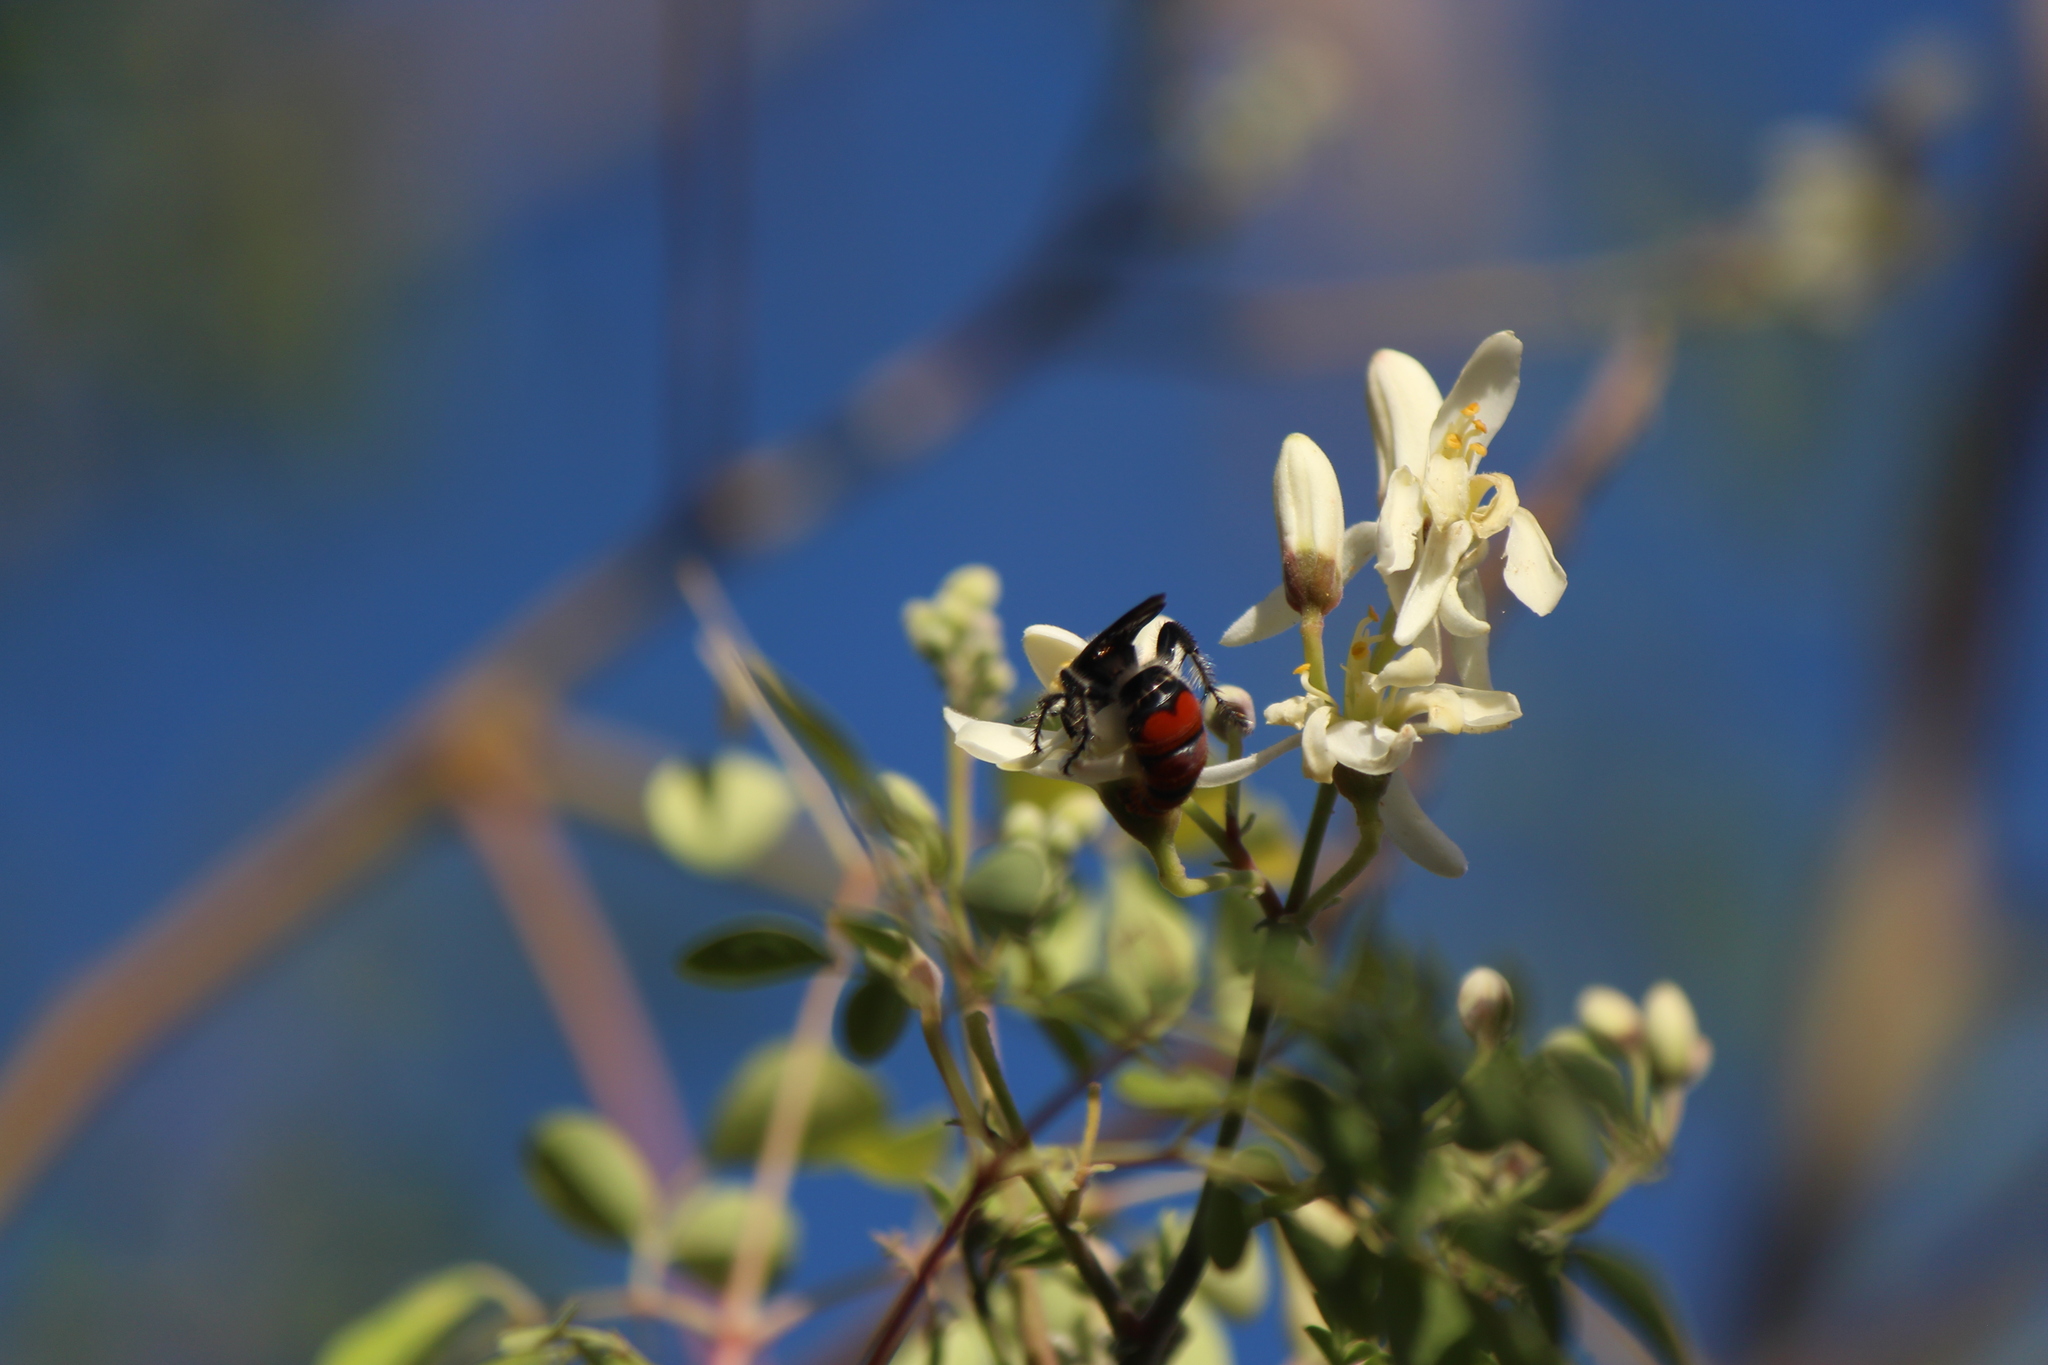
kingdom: Animalia
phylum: Arthropoda
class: Insecta
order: Hymenoptera
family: Scoliidae
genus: Dielis
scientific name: Dielis tolteca
